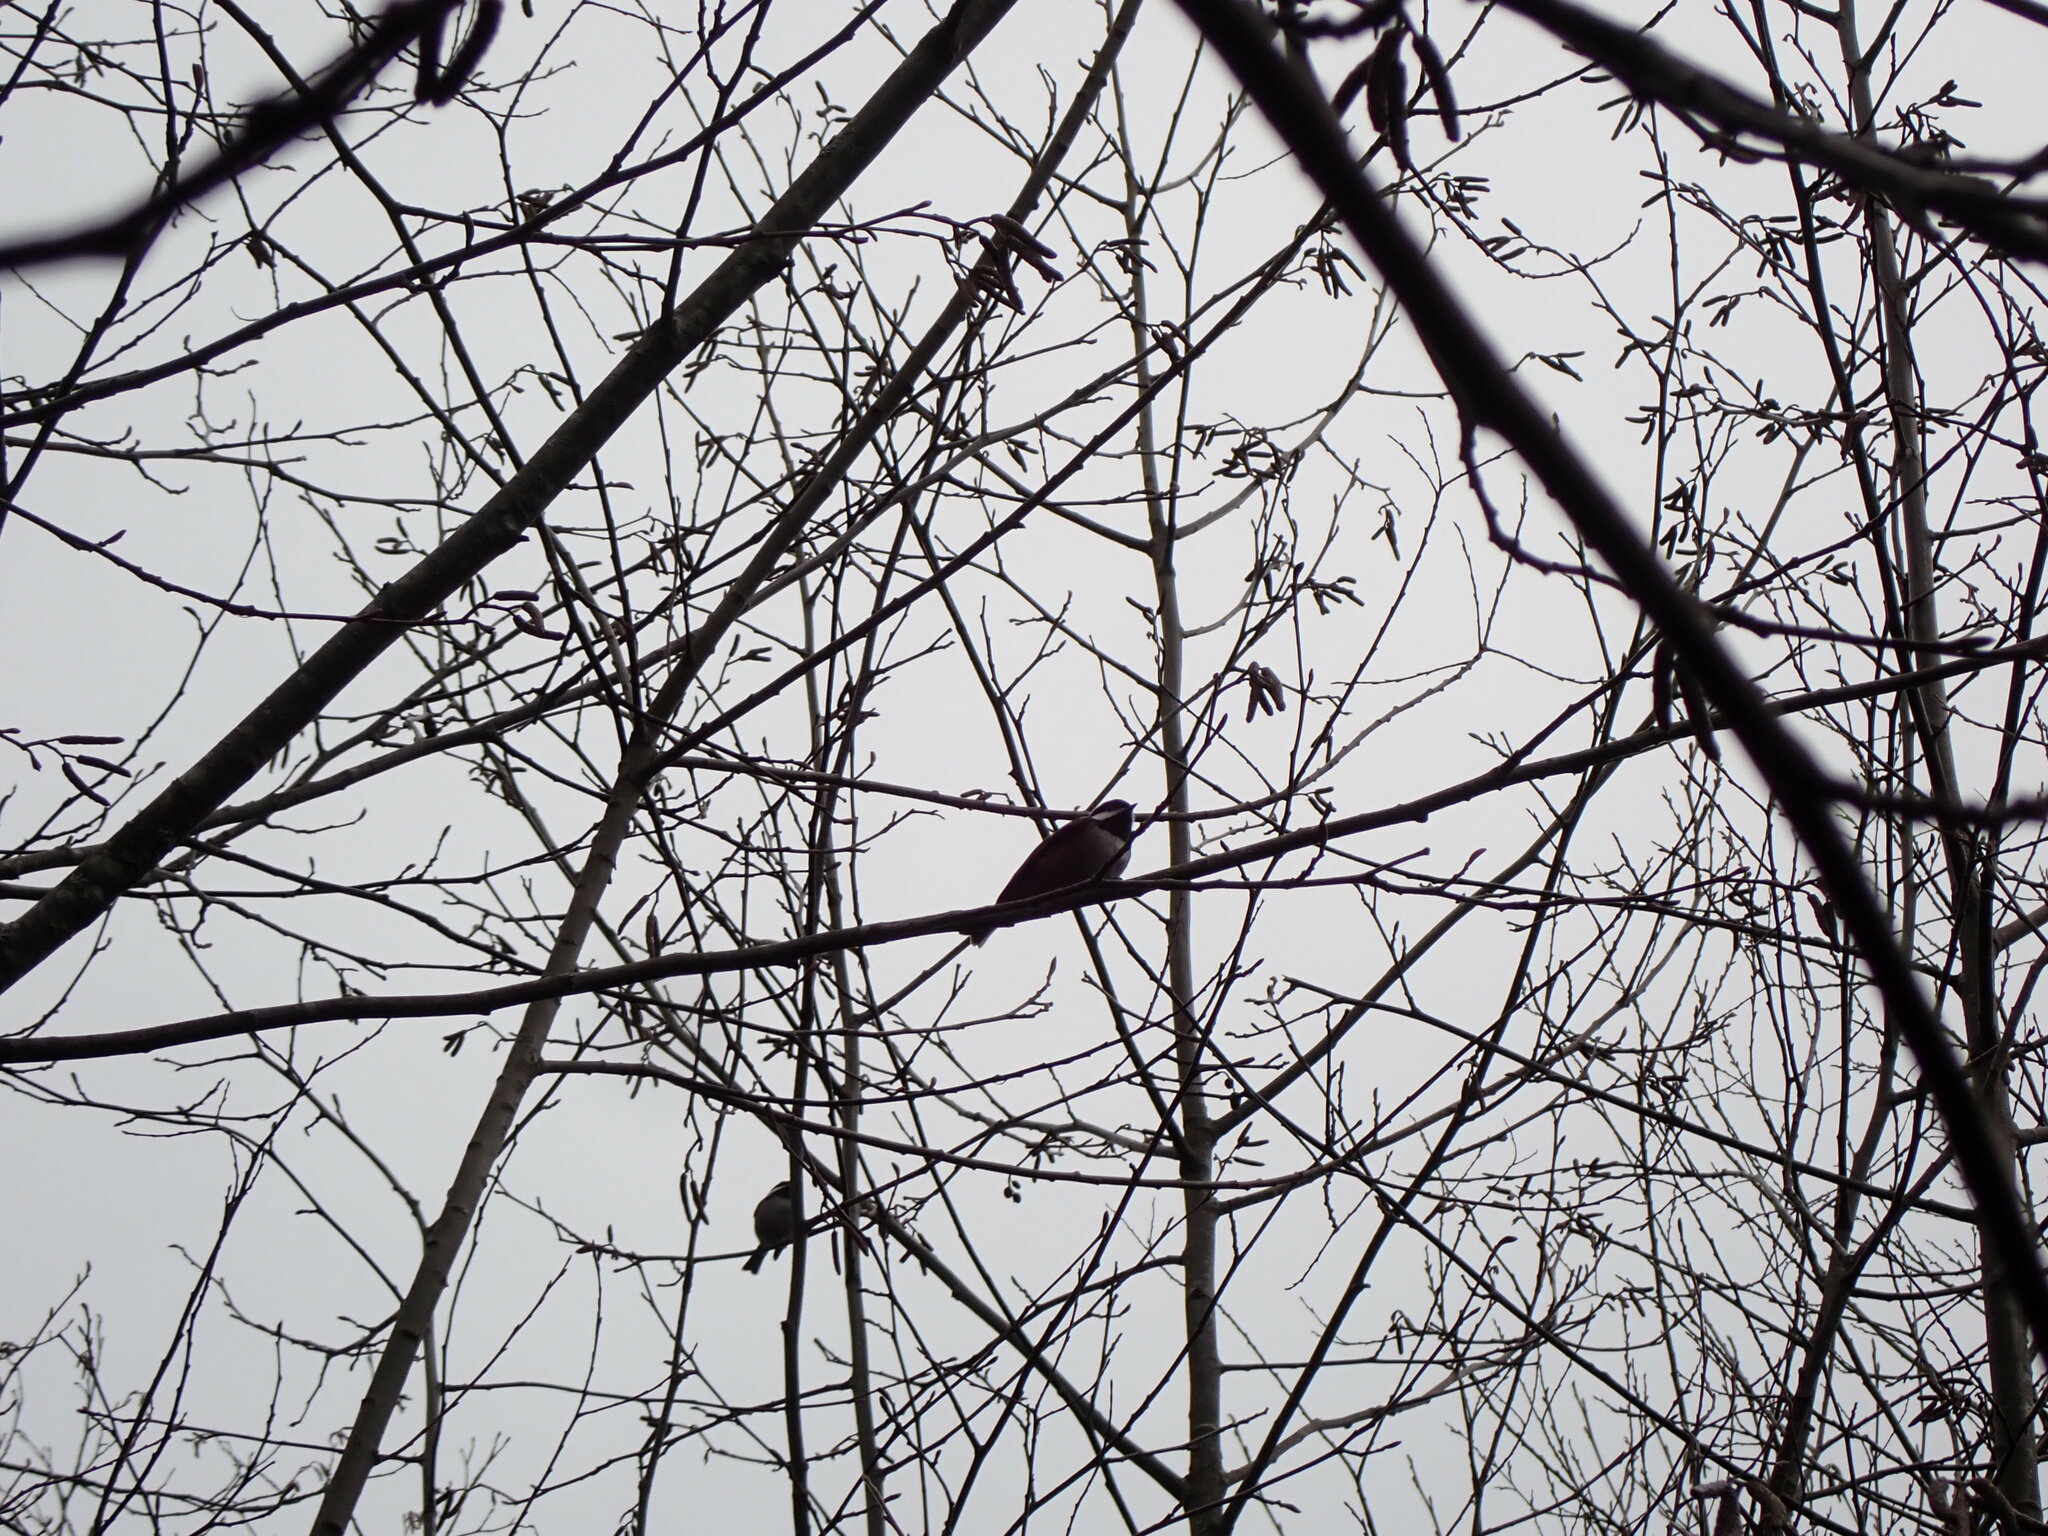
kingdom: Animalia
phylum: Chordata
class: Aves
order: Passeriformes
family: Paridae
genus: Poecile
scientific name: Poecile rufescens
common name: Chestnut-backed chickadee
